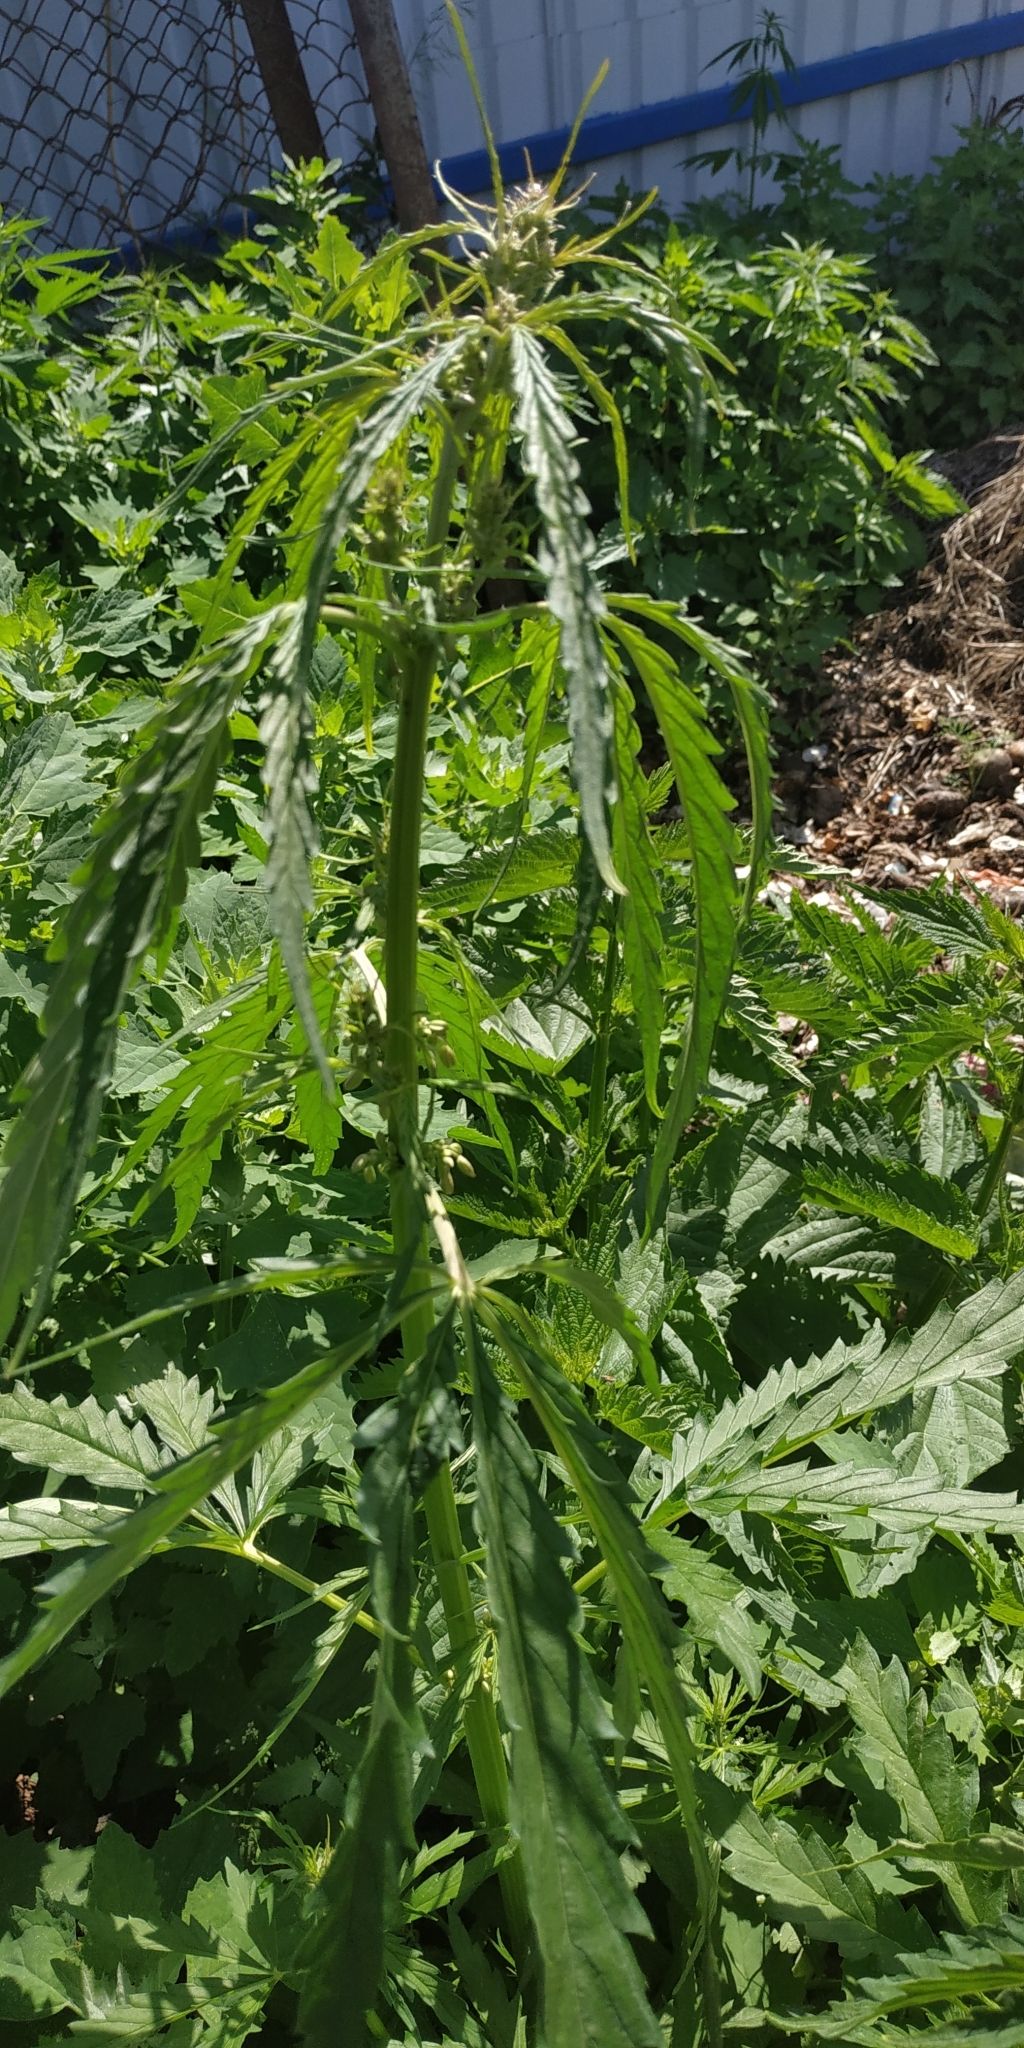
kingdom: Plantae
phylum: Tracheophyta
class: Magnoliopsida
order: Rosales
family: Cannabaceae
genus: Cannabis
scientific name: Cannabis sativa
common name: Hemp
